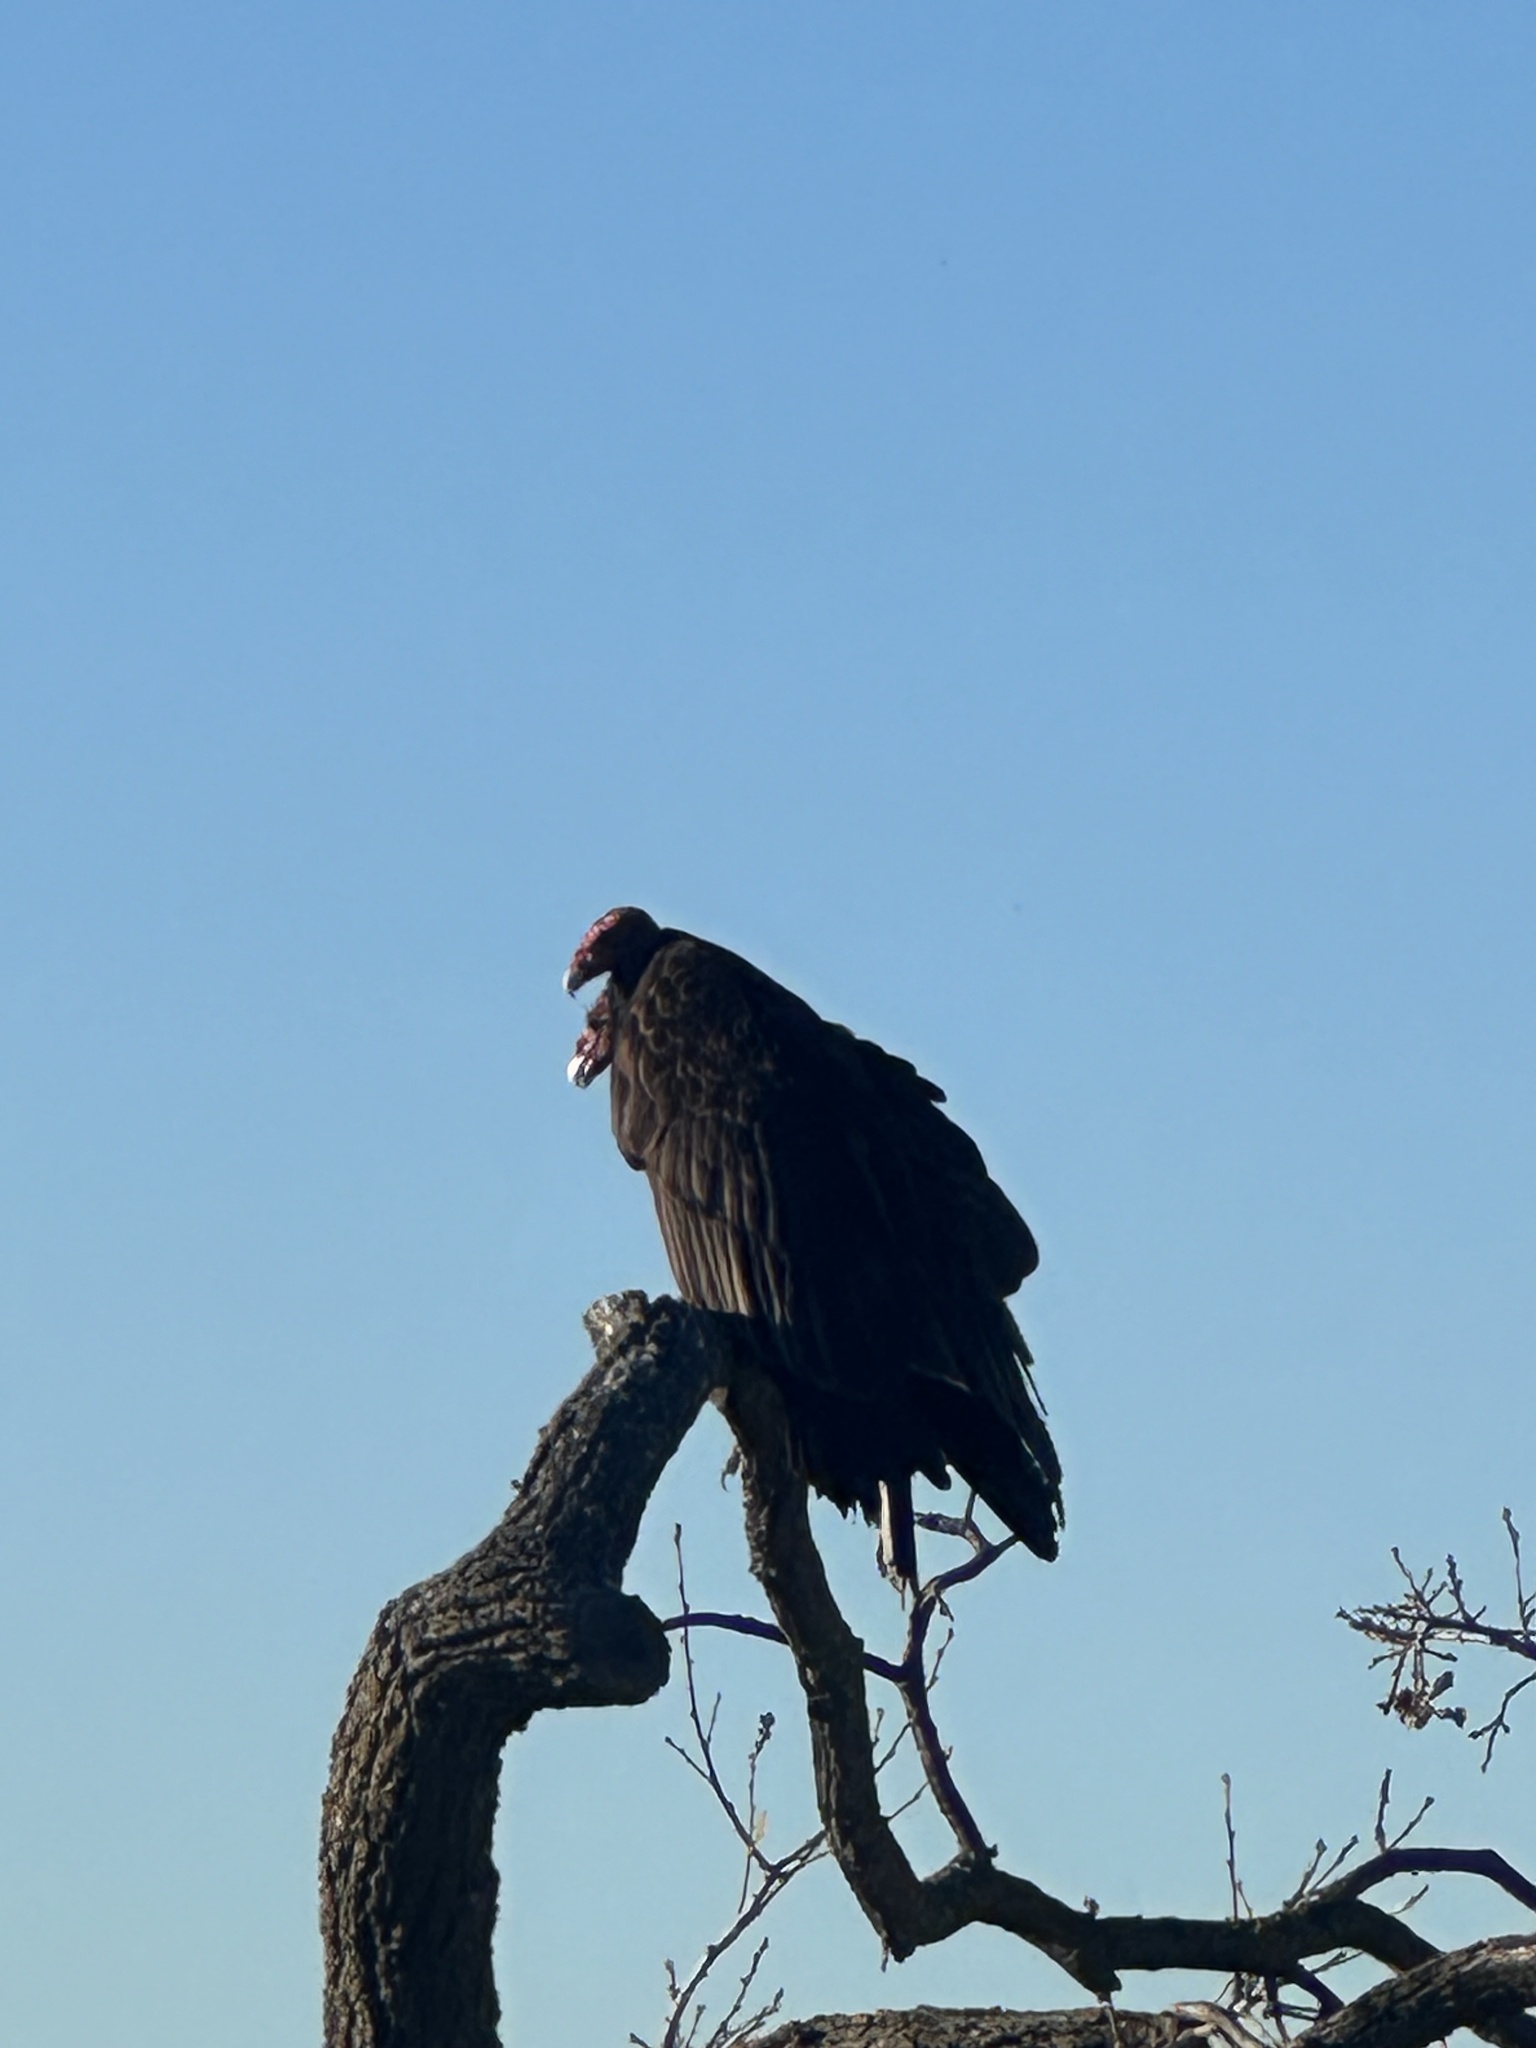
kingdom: Animalia
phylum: Chordata
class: Aves
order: Accipitriformes
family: Cathartidae
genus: Cathartes
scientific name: Cathartes aura
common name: Turkey vulture
